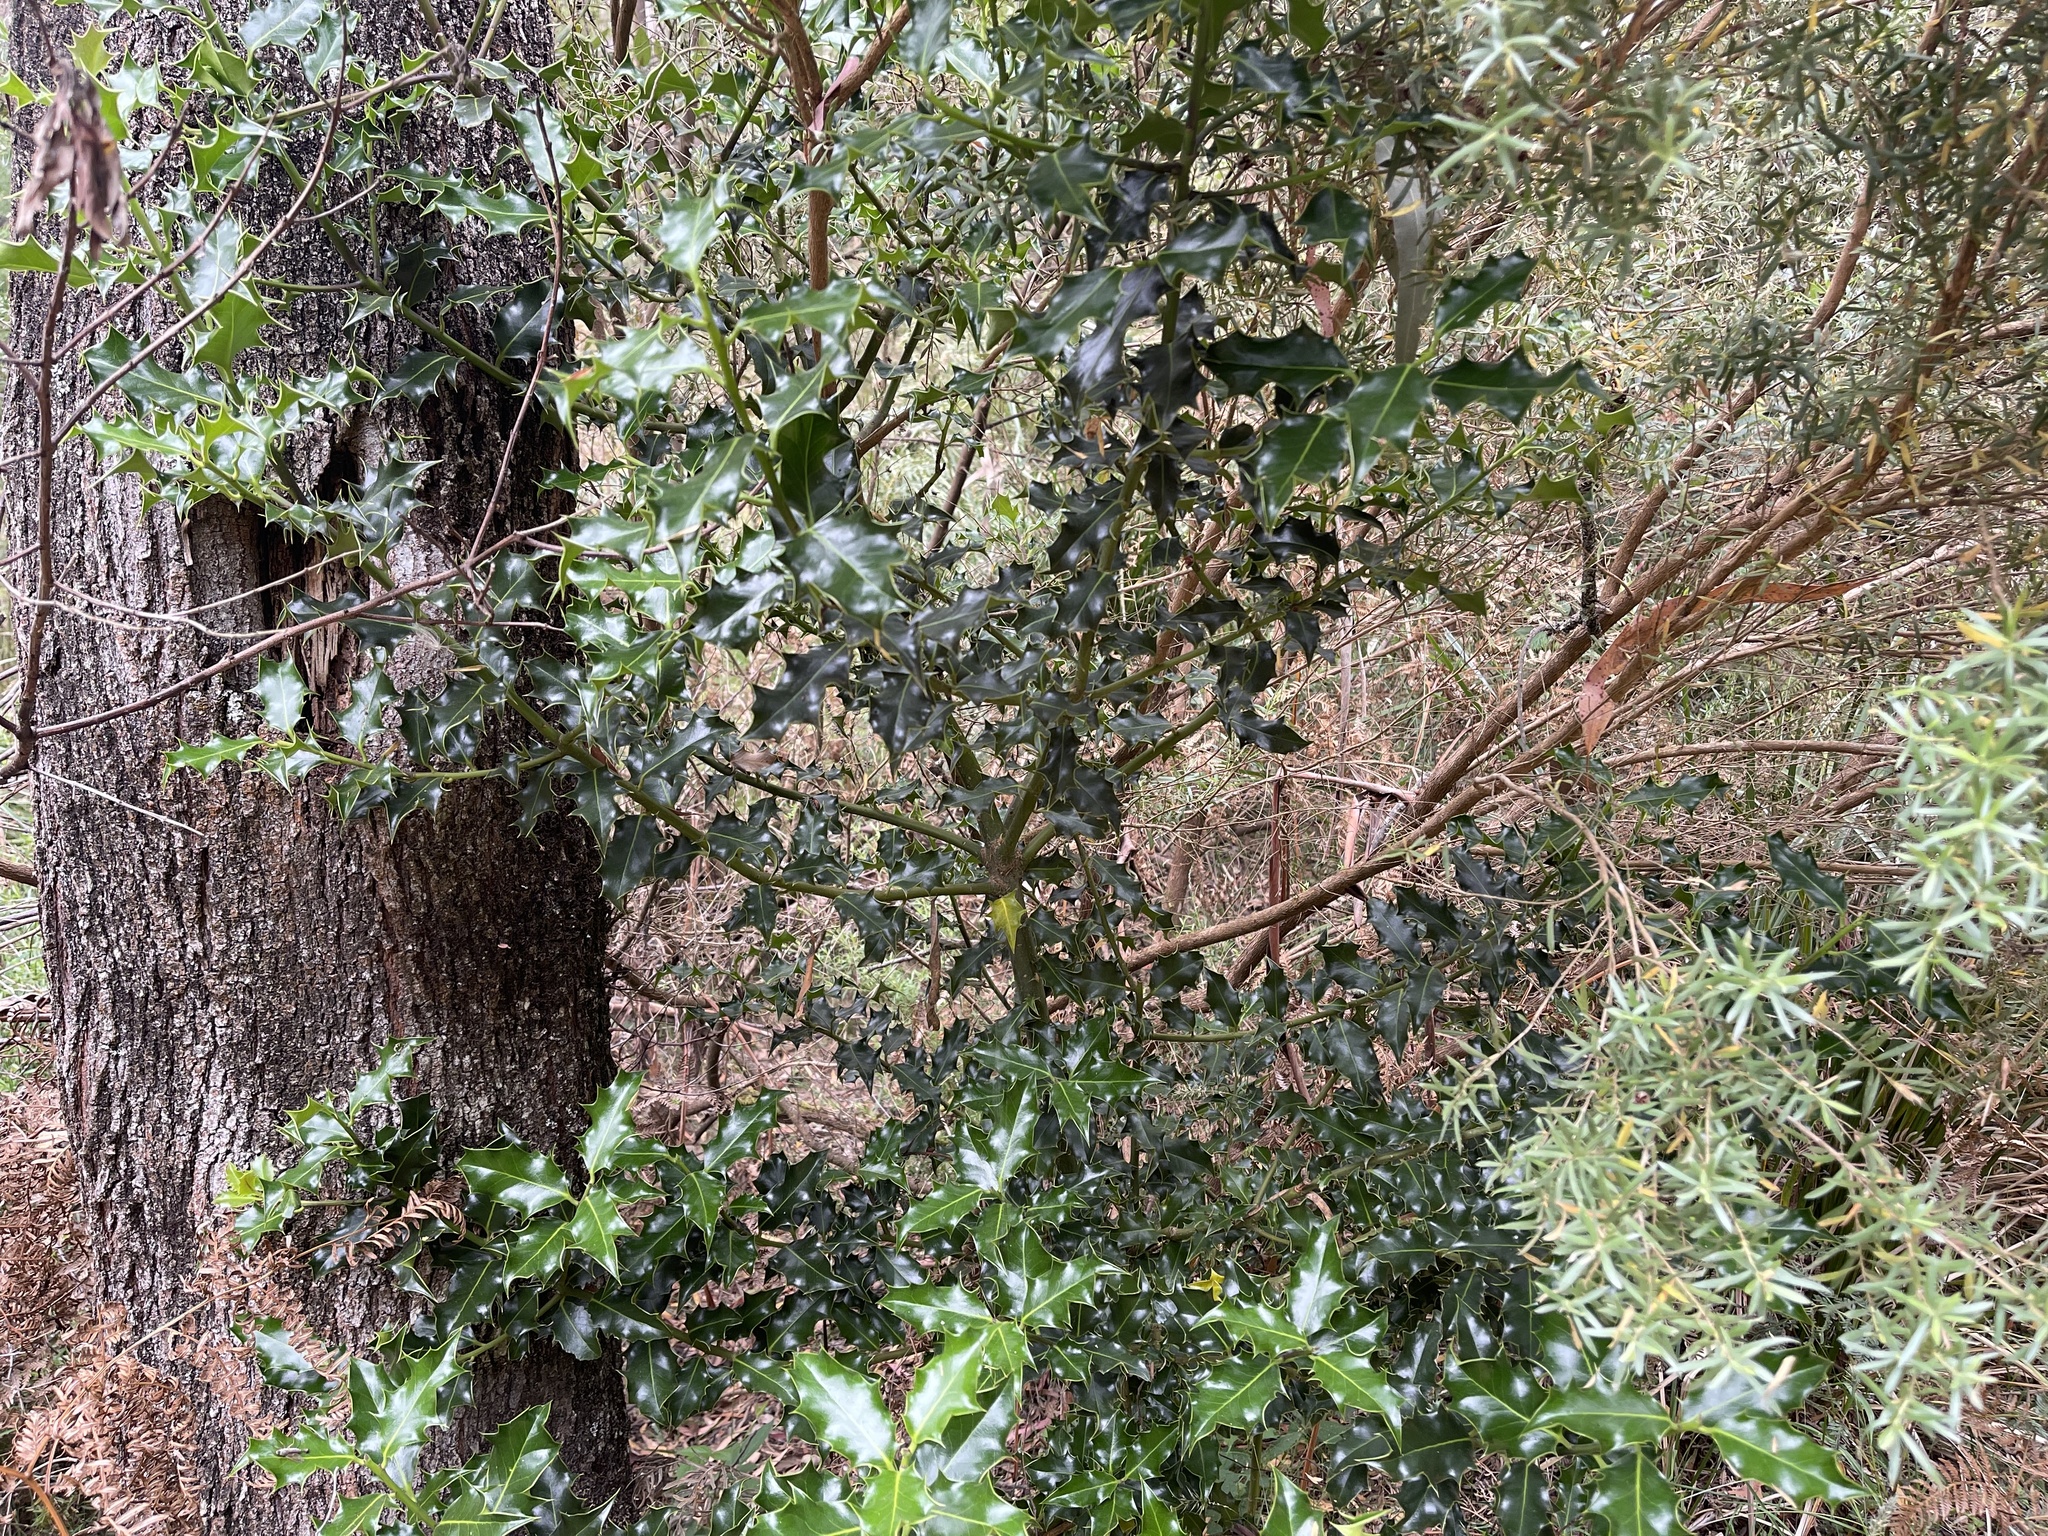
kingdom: Plantae
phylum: Tracheophyta
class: Magnoliopsida
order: Aquifoliales
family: Aquifoliaceae
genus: Ilex
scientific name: Ilex aquifolium
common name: English holly
